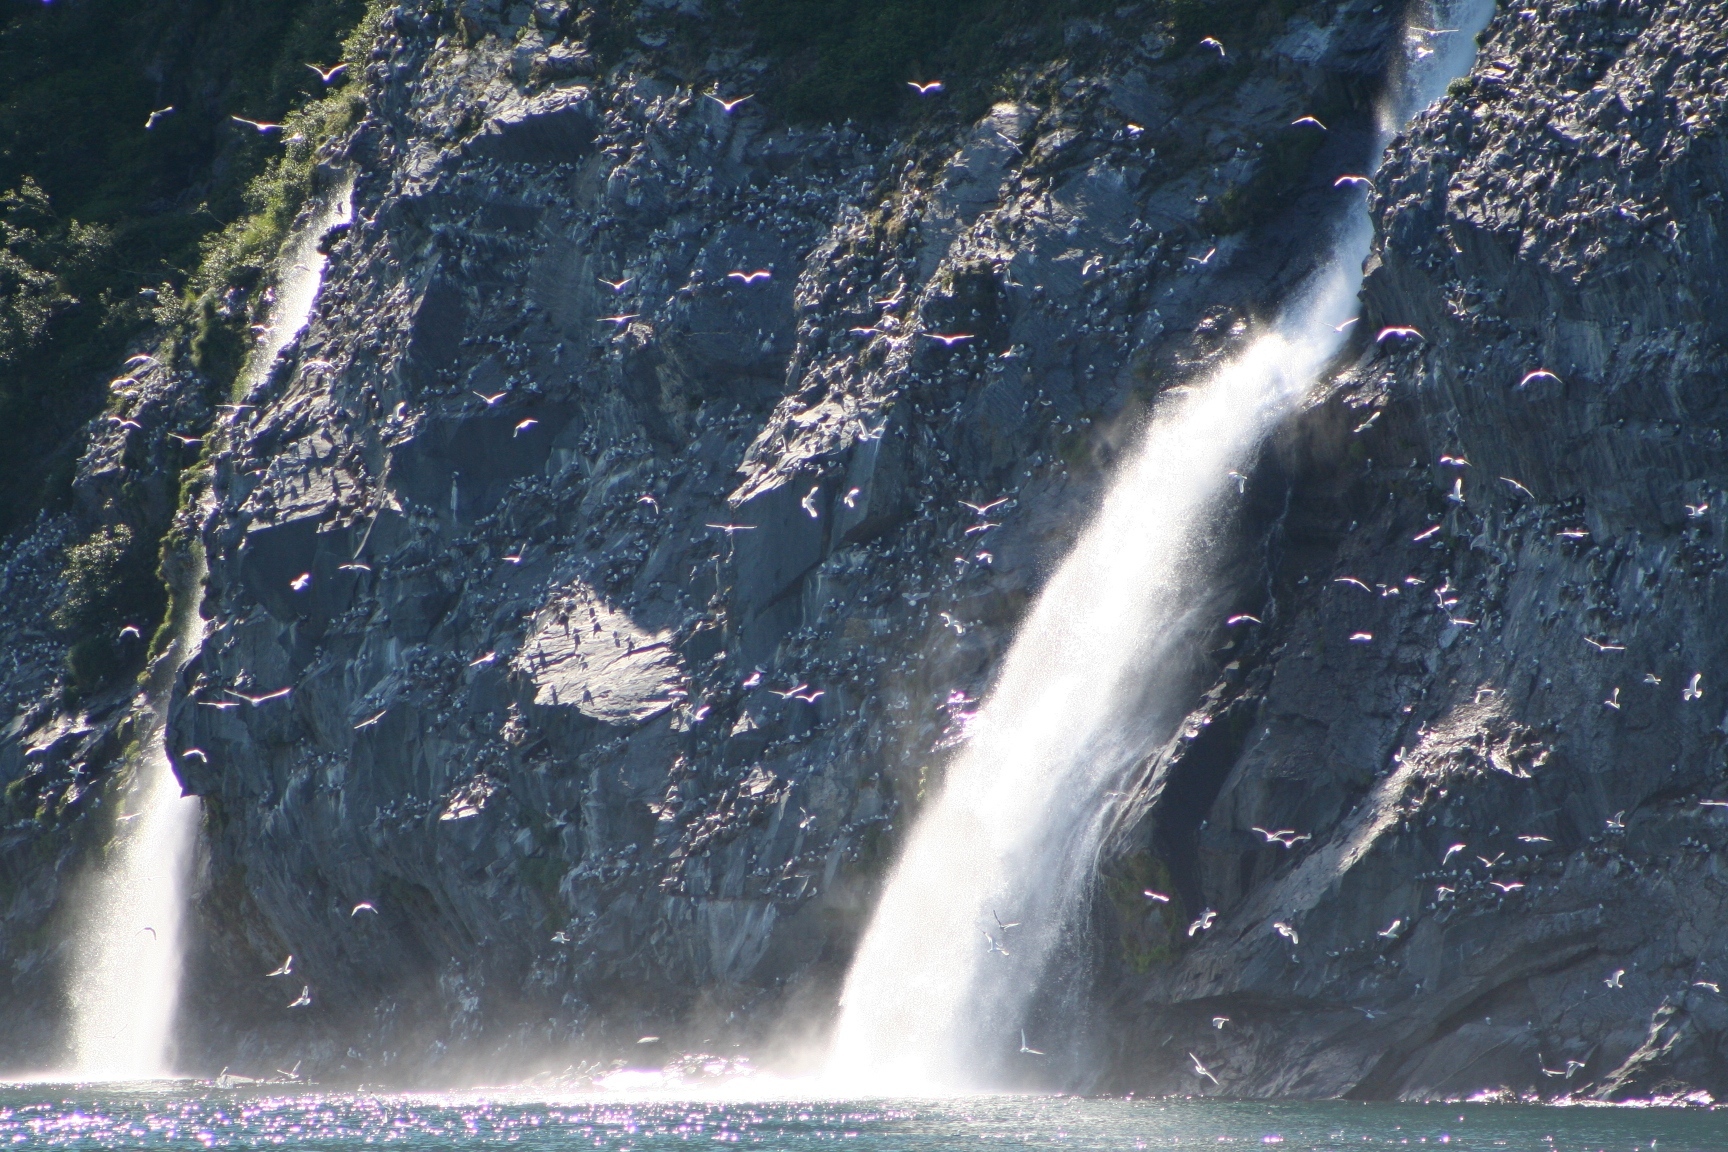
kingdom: Animalia
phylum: Chordata
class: Aves
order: Charadriiformes
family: Laridae
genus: Rissa
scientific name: Rissa tridactyla
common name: Black-legged kittiwake
